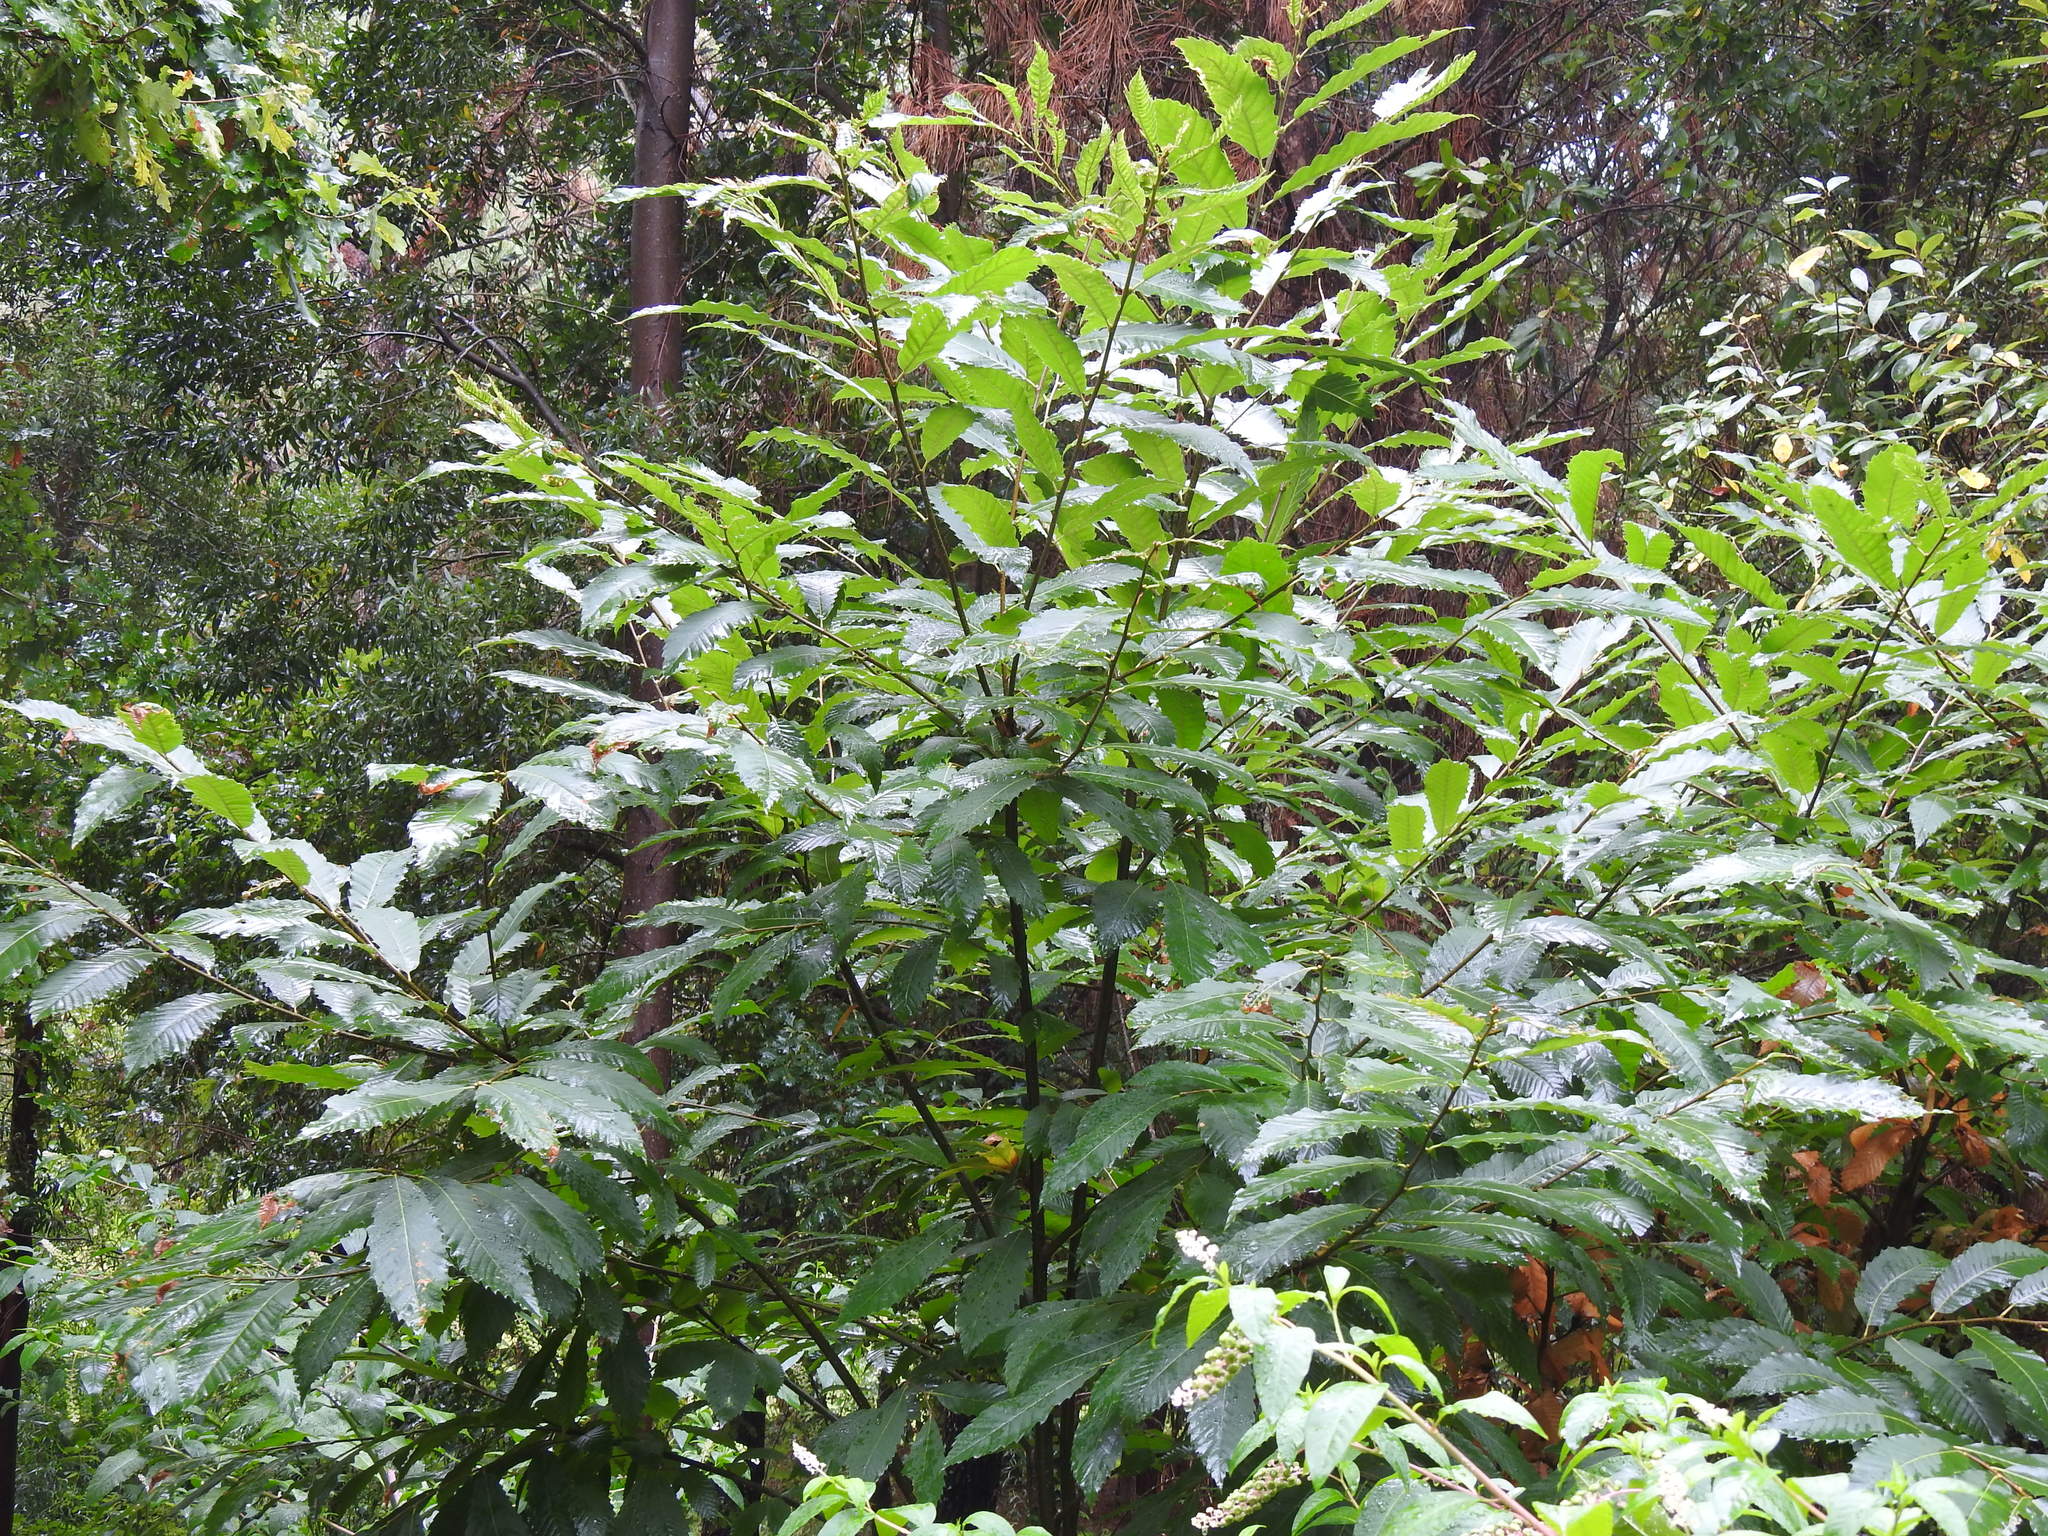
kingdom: Plantae
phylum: Tracheophyta
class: Magnoliopsida
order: Fagales
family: Fagaceae
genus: Castanea
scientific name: Castanea sativa
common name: Sweet chestnut
